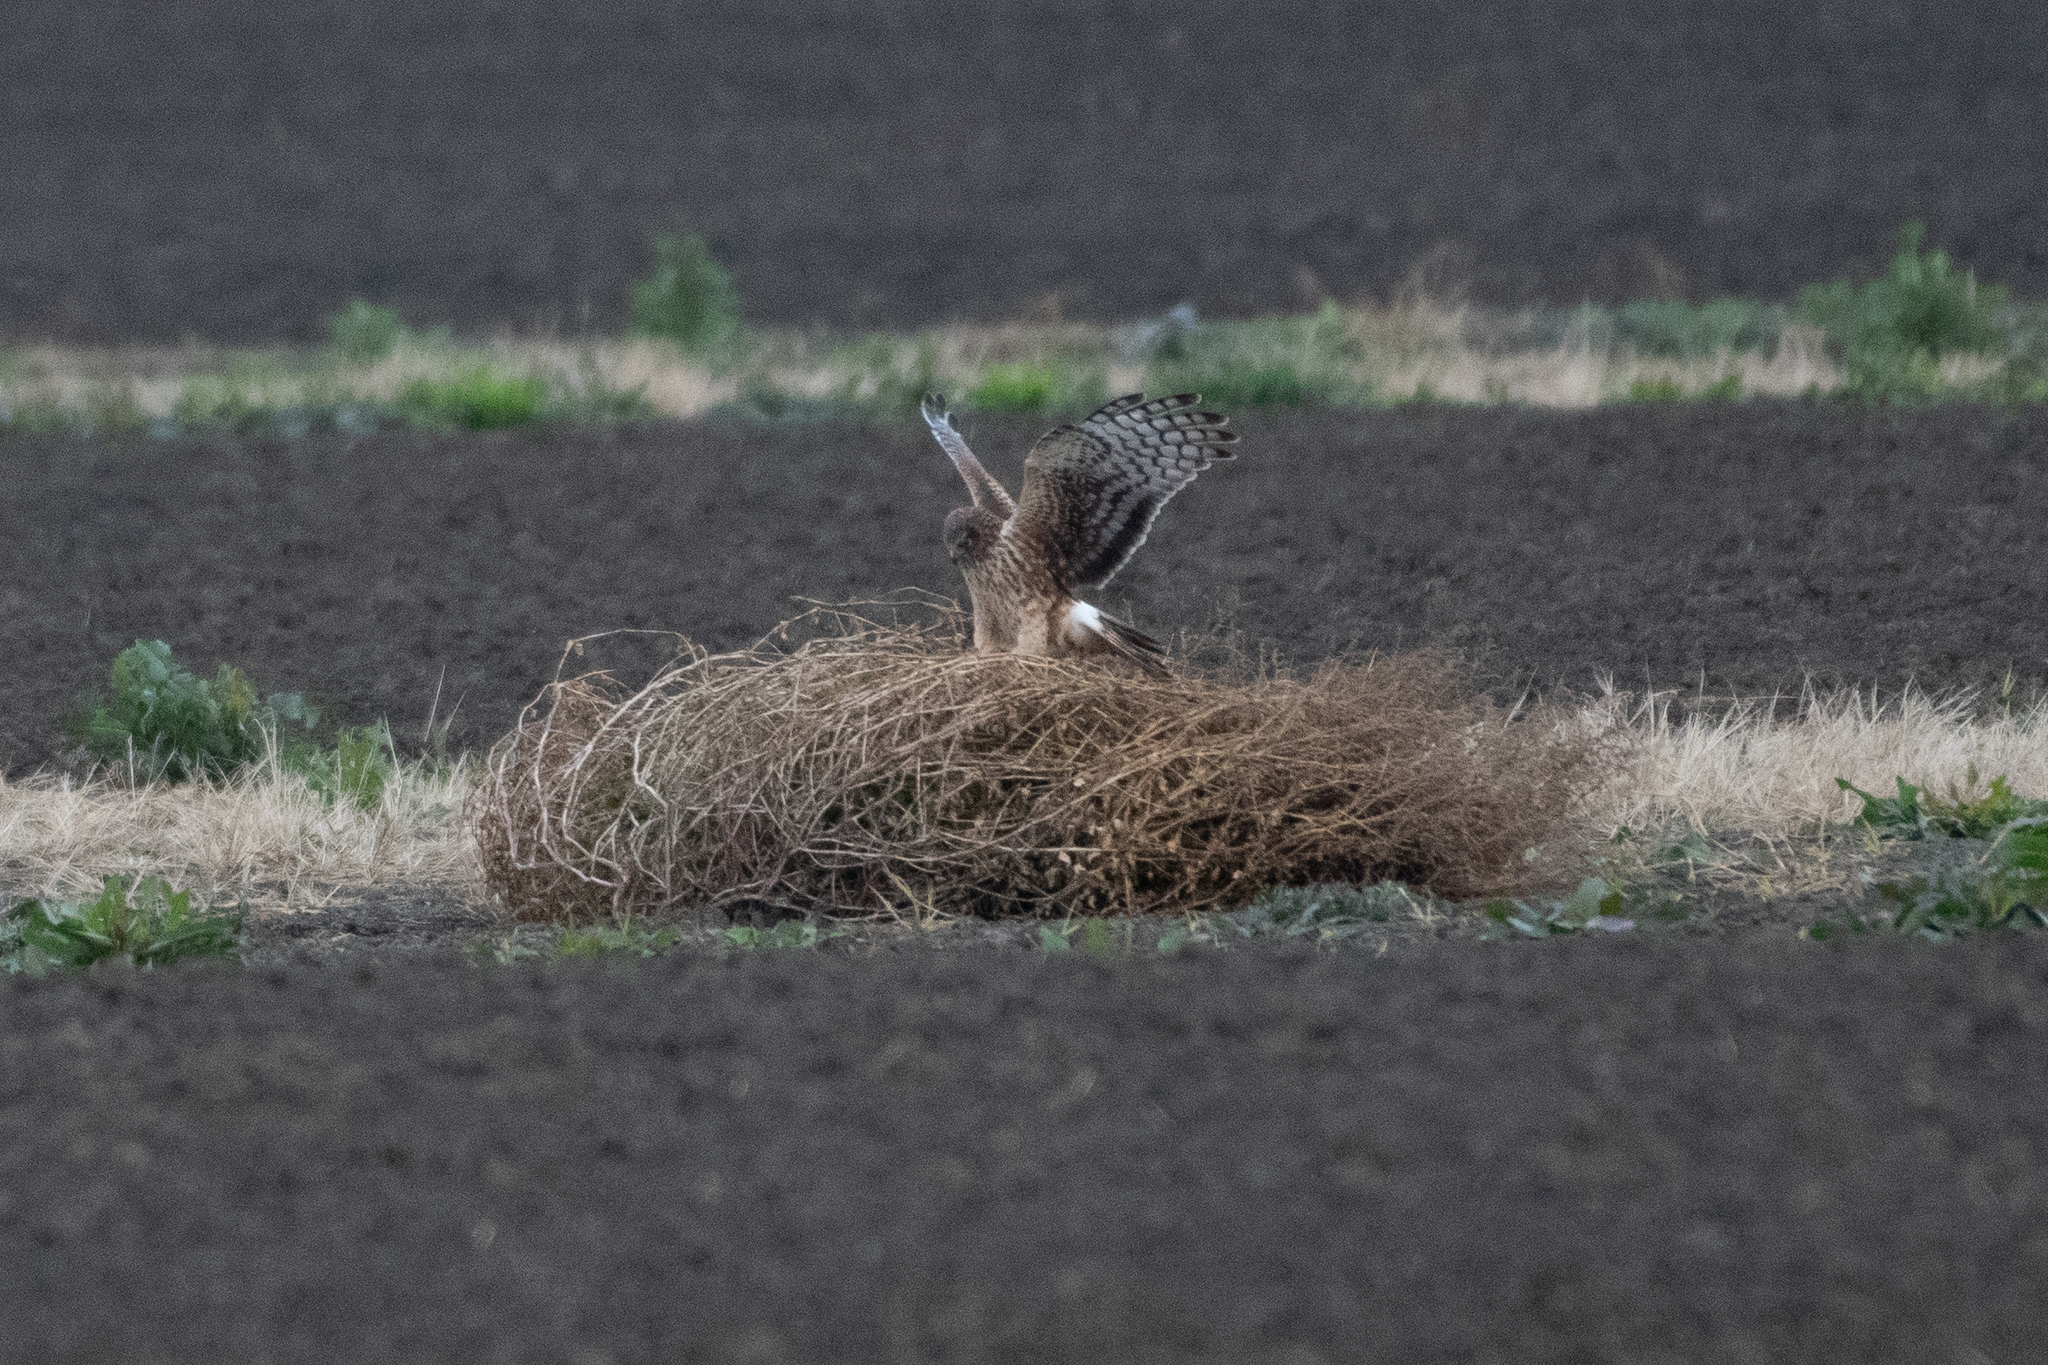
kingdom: Animalia
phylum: Chordata
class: Aves
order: Accipitriformes
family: Accipitridae
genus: Circus
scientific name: Circus cyaneus
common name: Hen harrier
